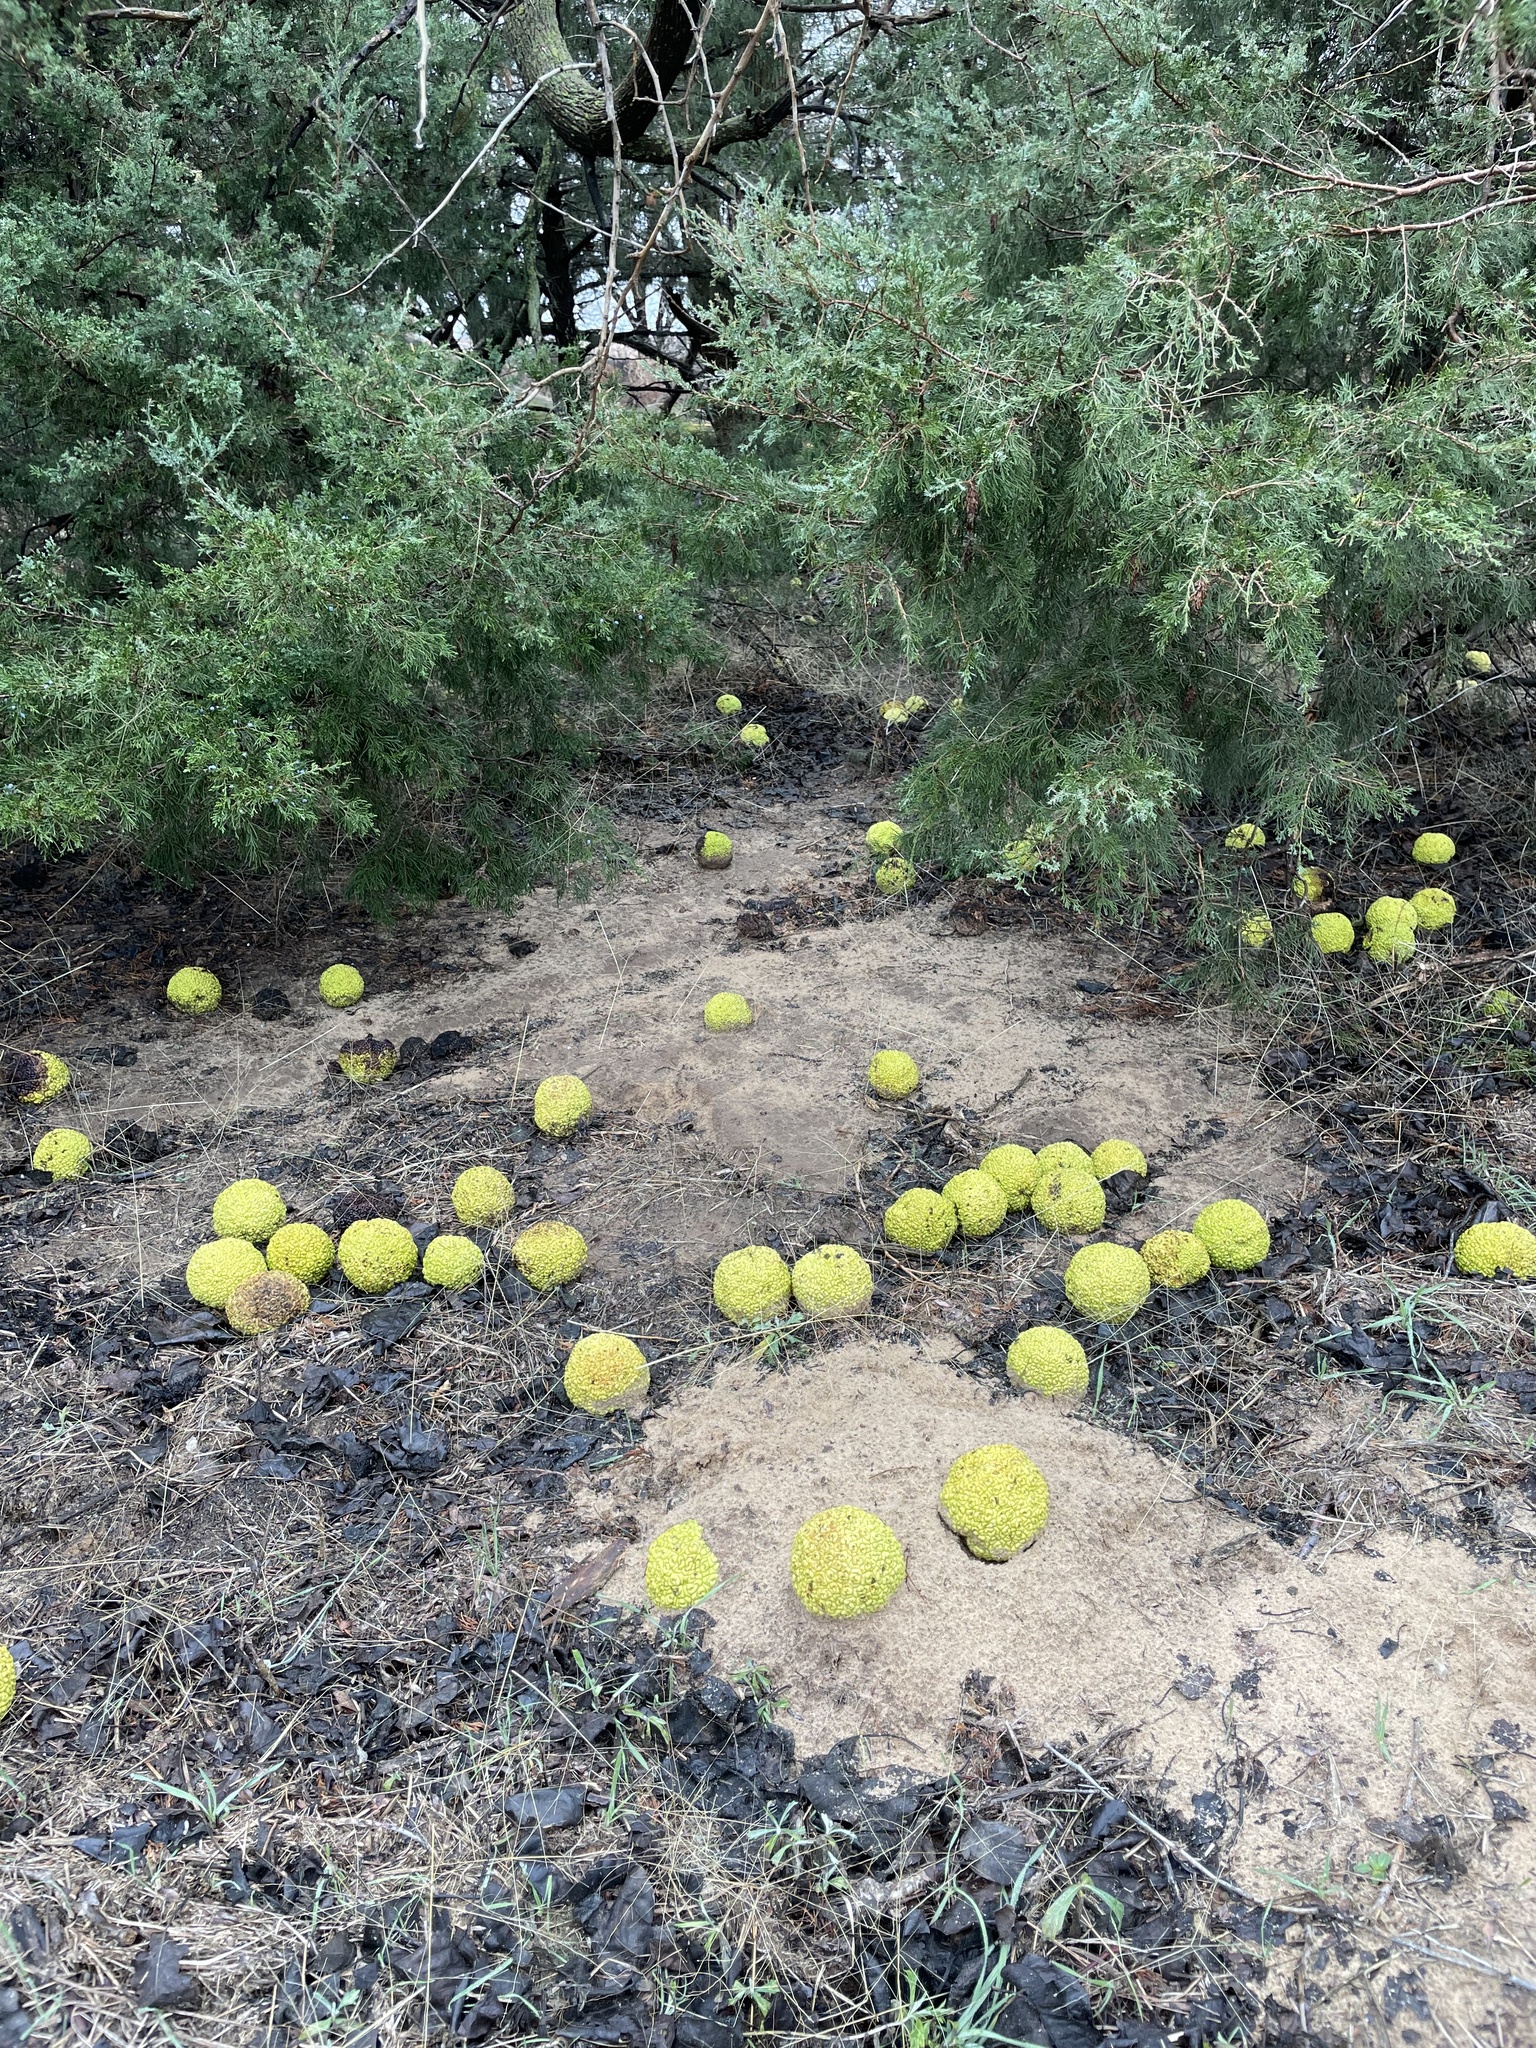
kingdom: Plantae
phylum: Tracheophyta
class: Magnoliopsida
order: Rosales
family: Moraceae
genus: Maclura
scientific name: Maclura pomifera
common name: Osage-orange
